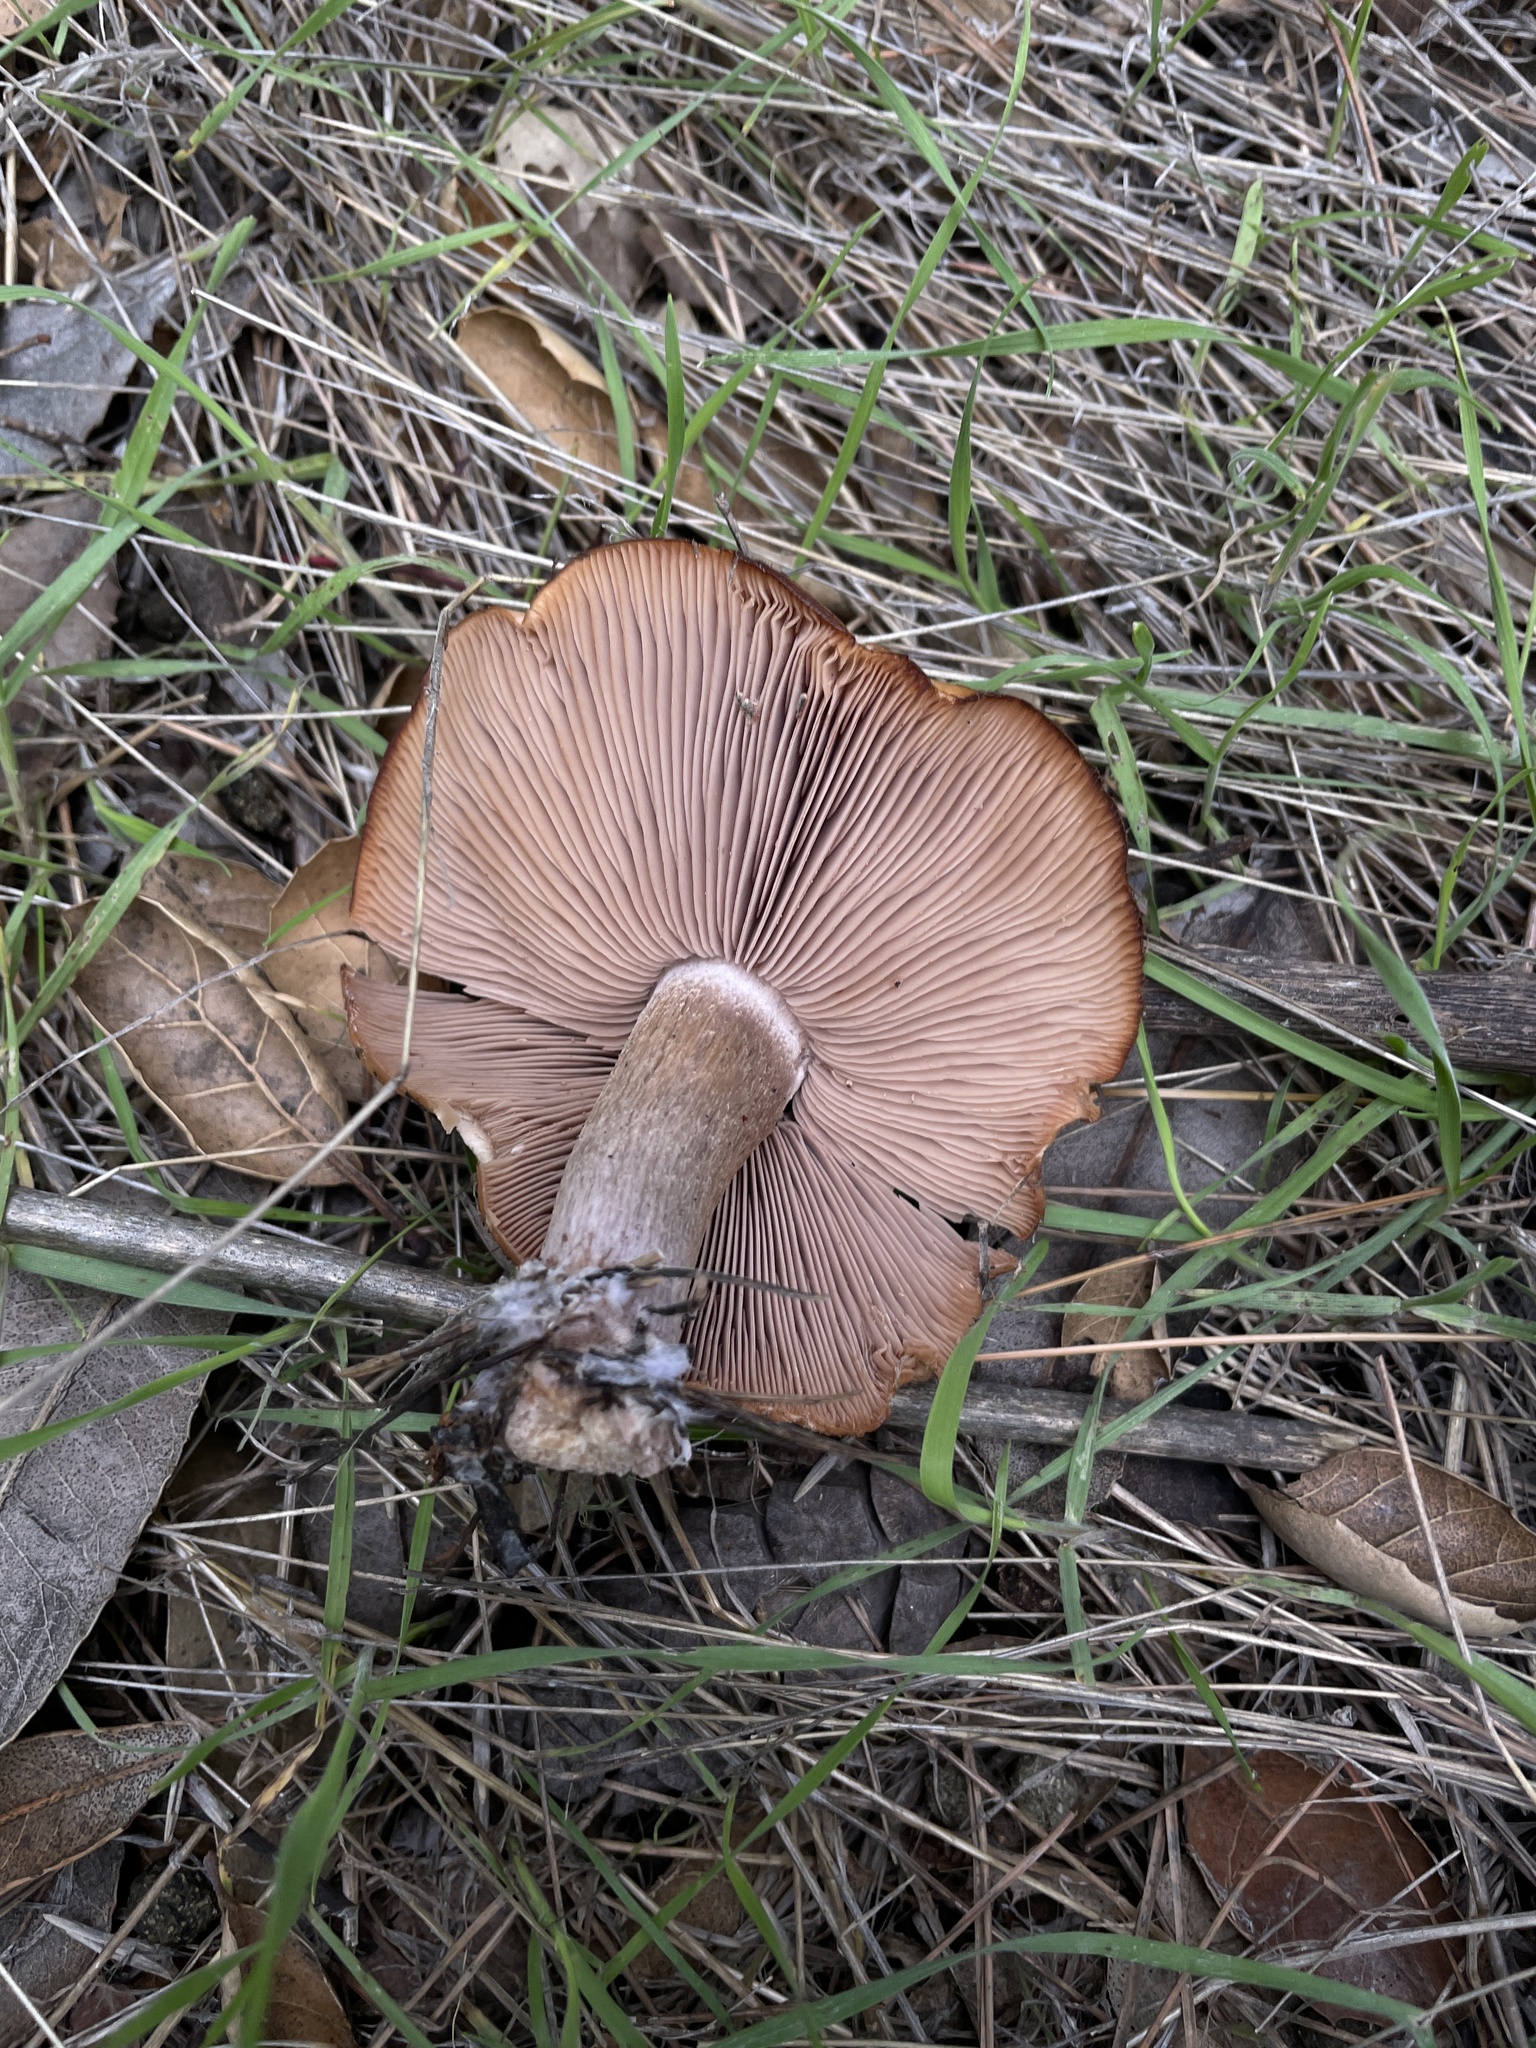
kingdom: Fungi
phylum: Basidiomycota
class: Agaricomycetes
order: Agaricales
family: Tricholomataceae
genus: Collybia
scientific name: Collybia
